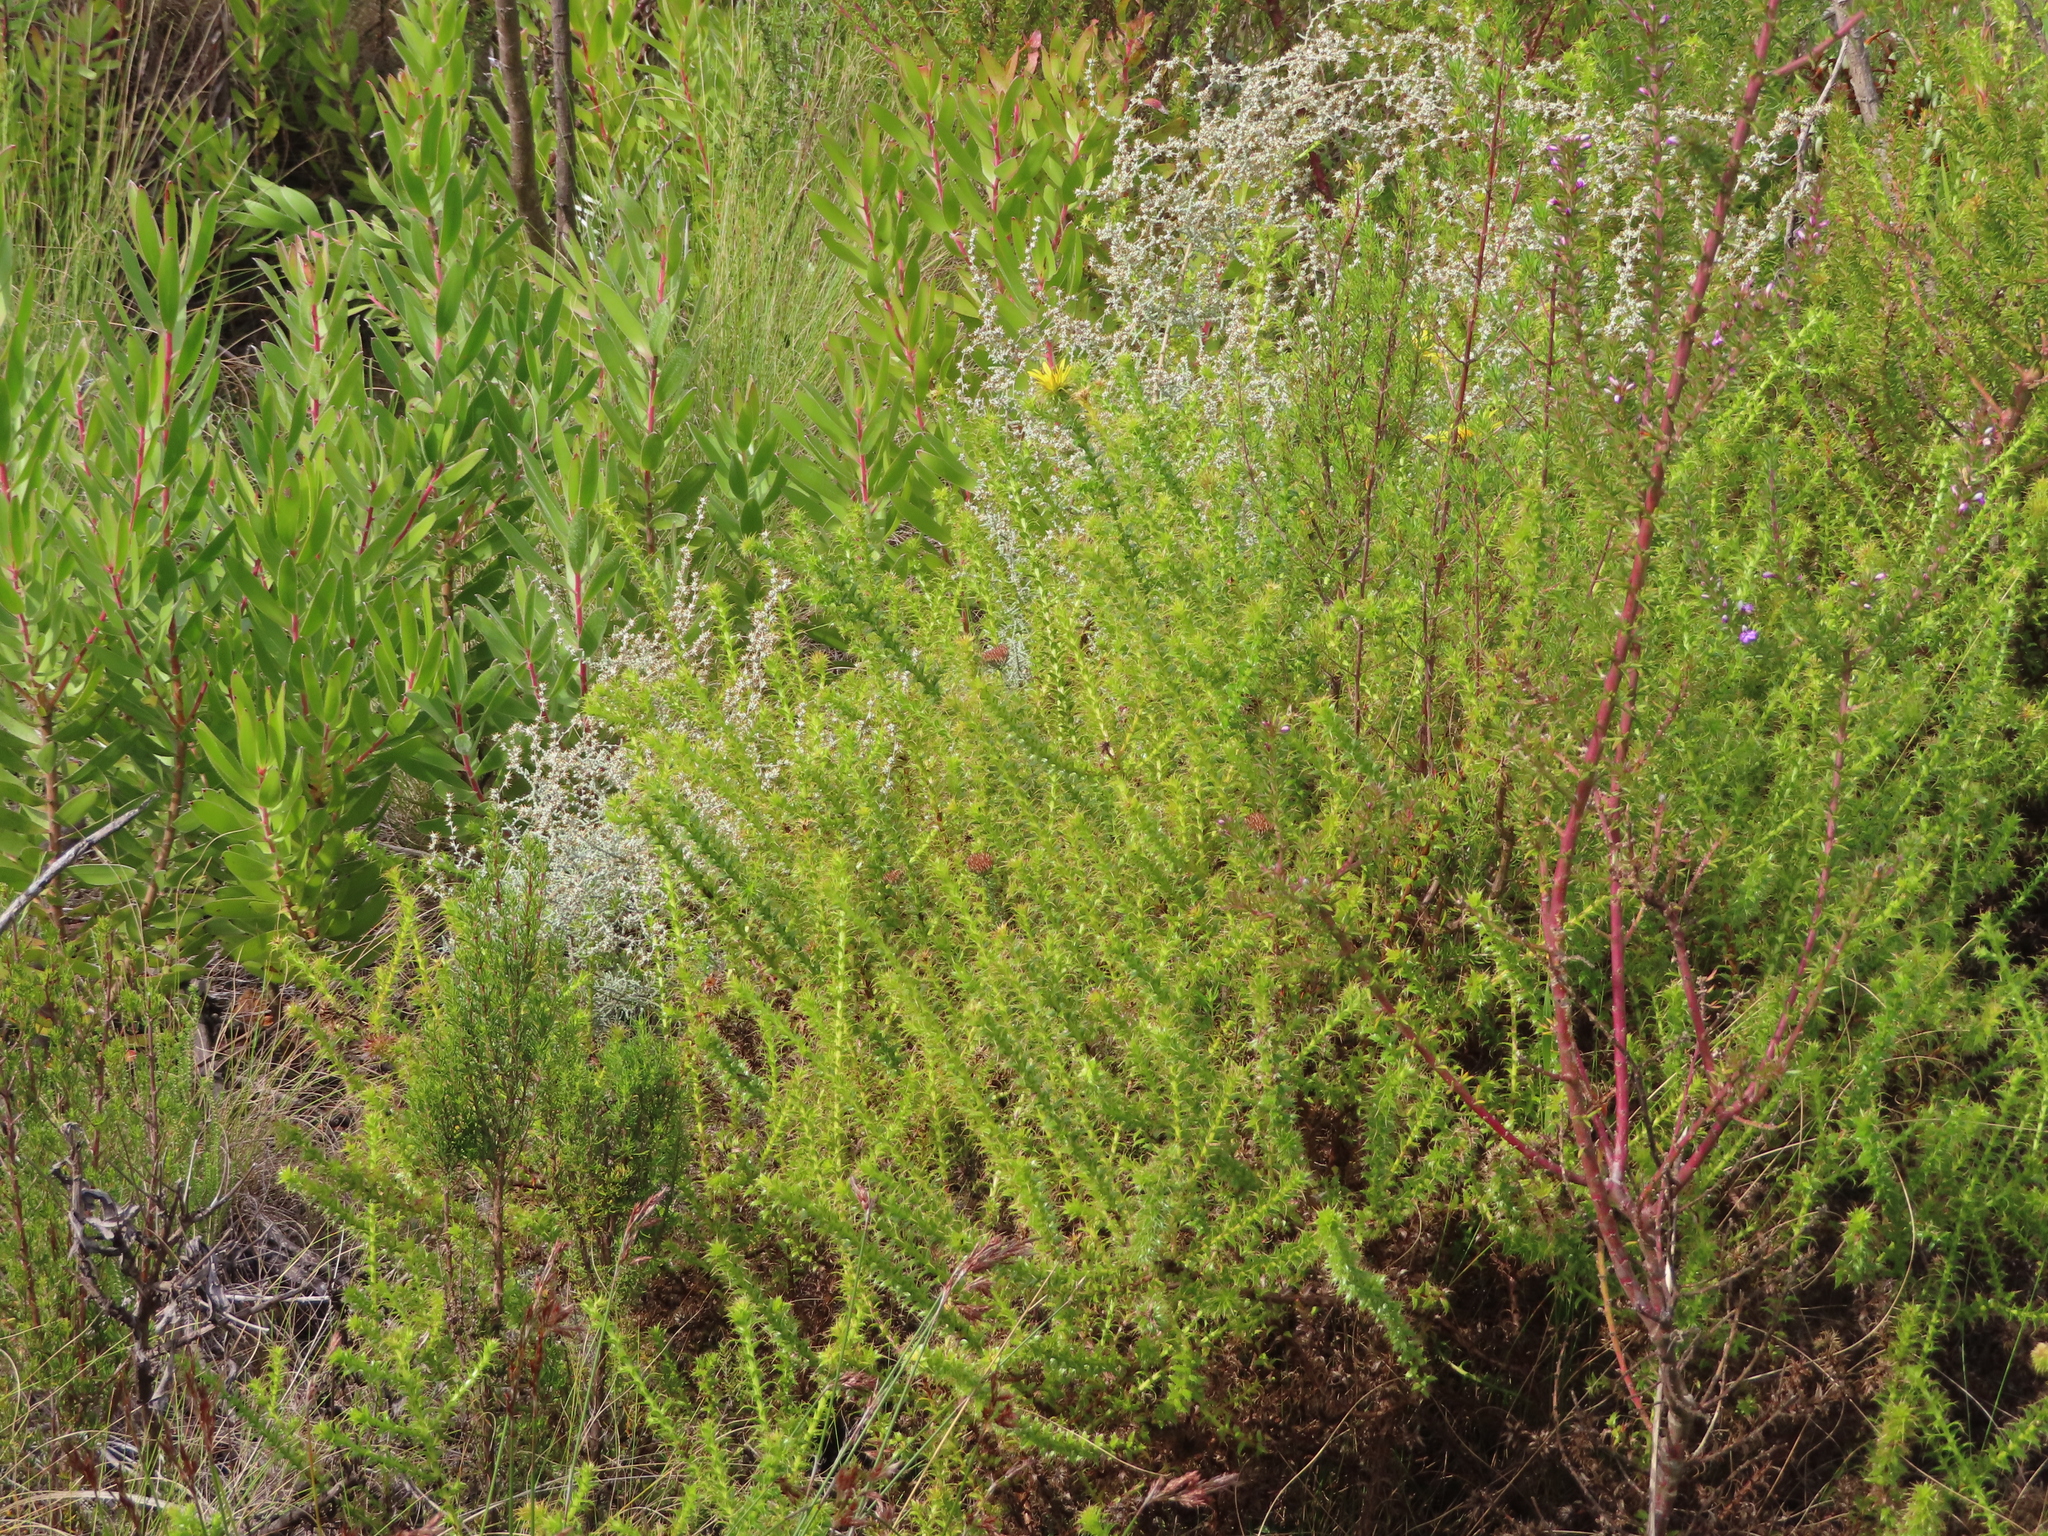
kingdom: Plantae
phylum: Tracheophyta
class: Magnoliopsida
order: Asterales
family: Asteraceae
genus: Cullumia
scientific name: Cullumia setosa
